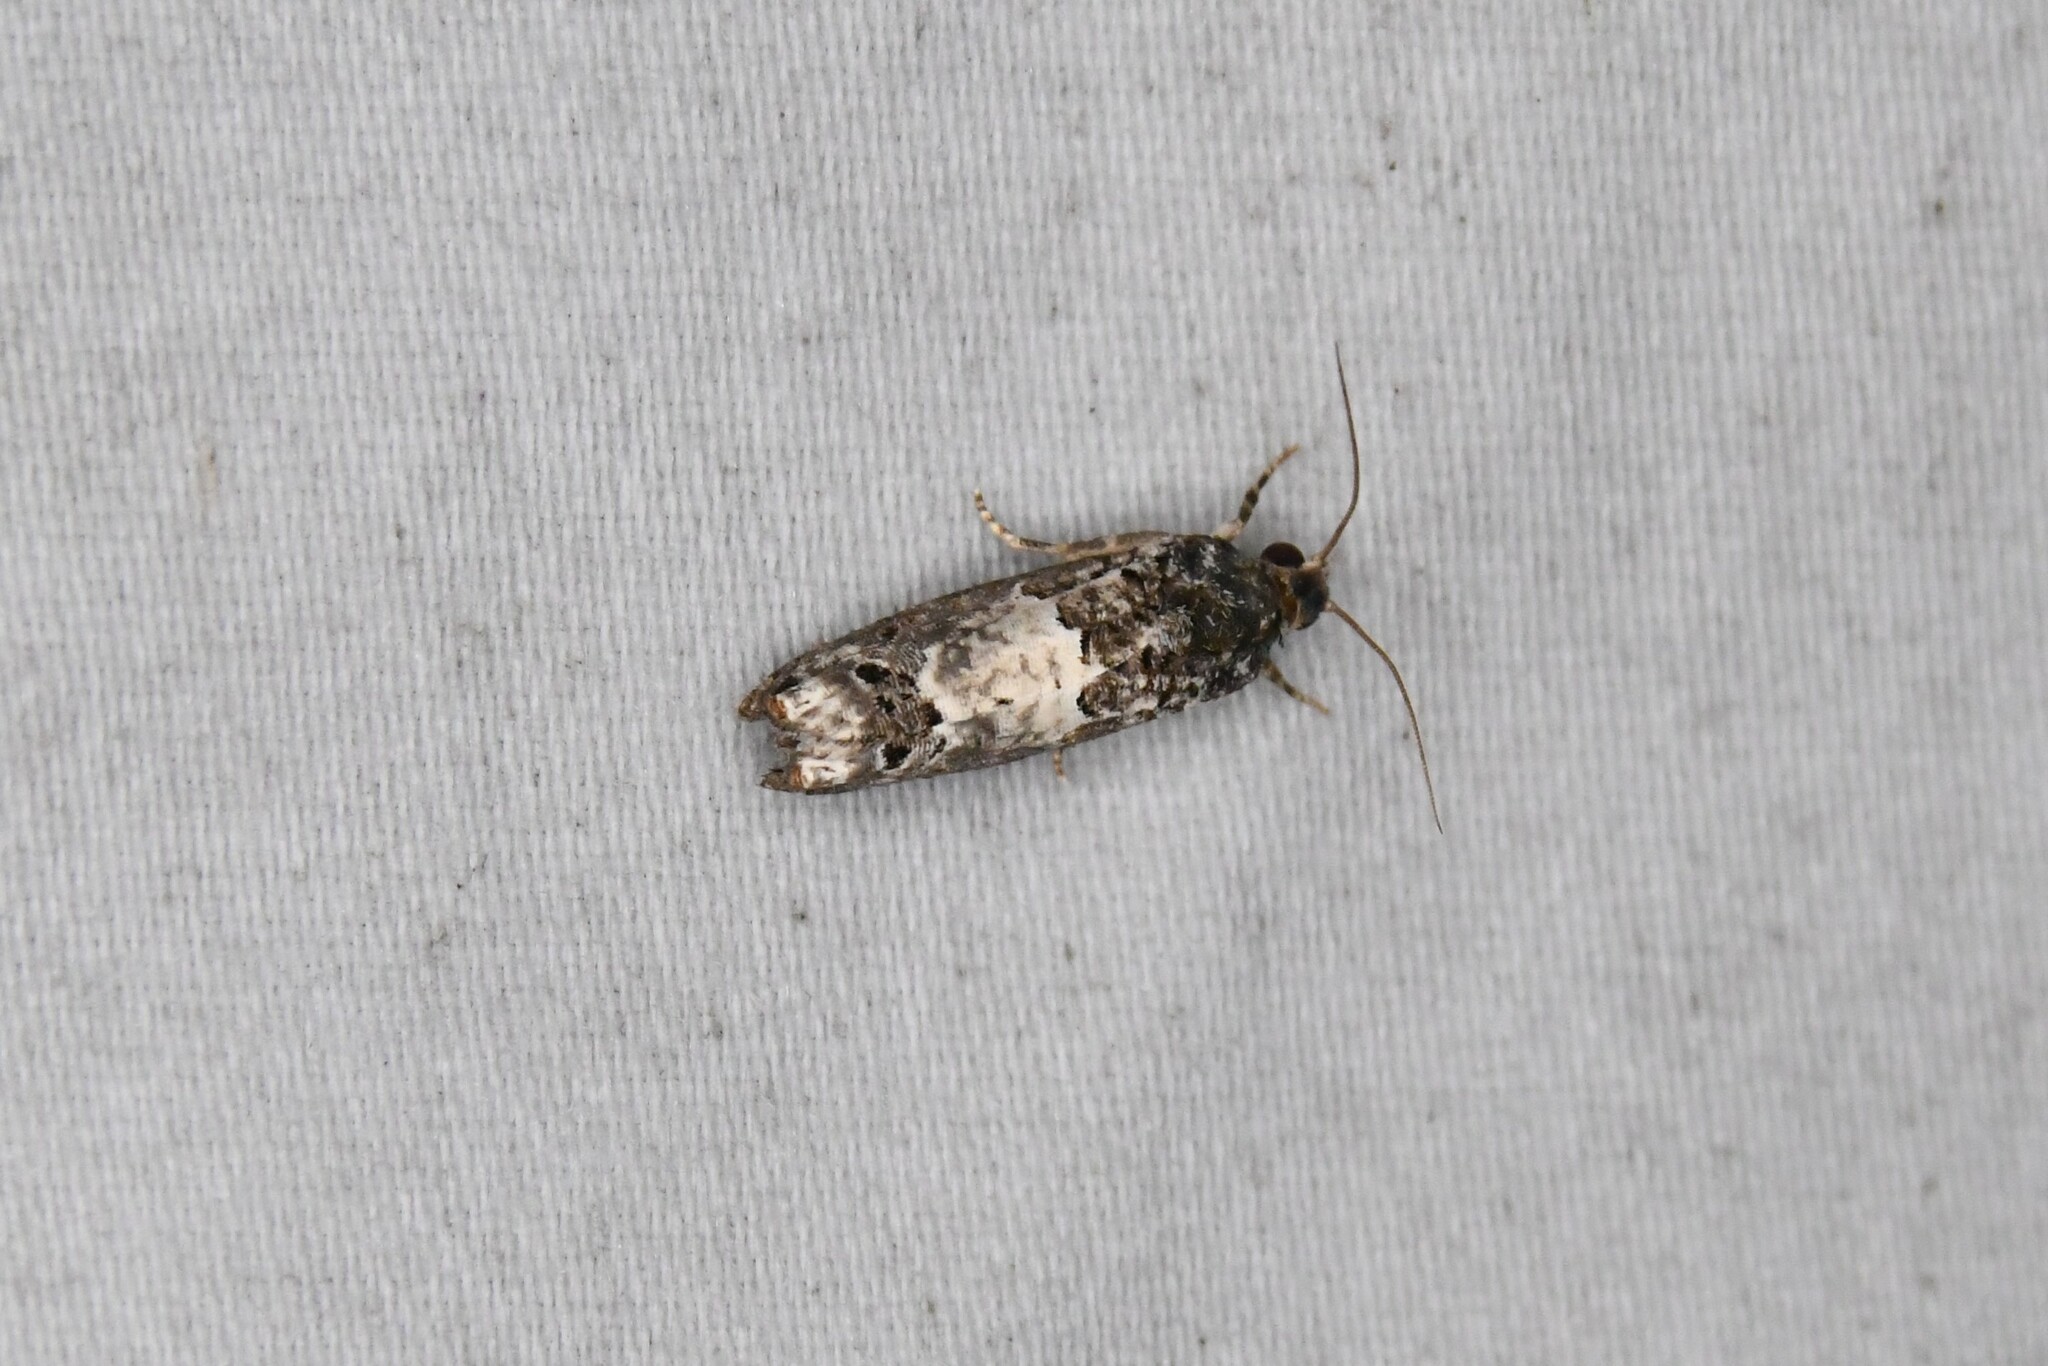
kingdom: Animalia
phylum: Arthropoda
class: Insecta
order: Lepidoptera
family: Tortricidae
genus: Epiblema
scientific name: Epiblema carolinana
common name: Gray-blotched epiblema moth
